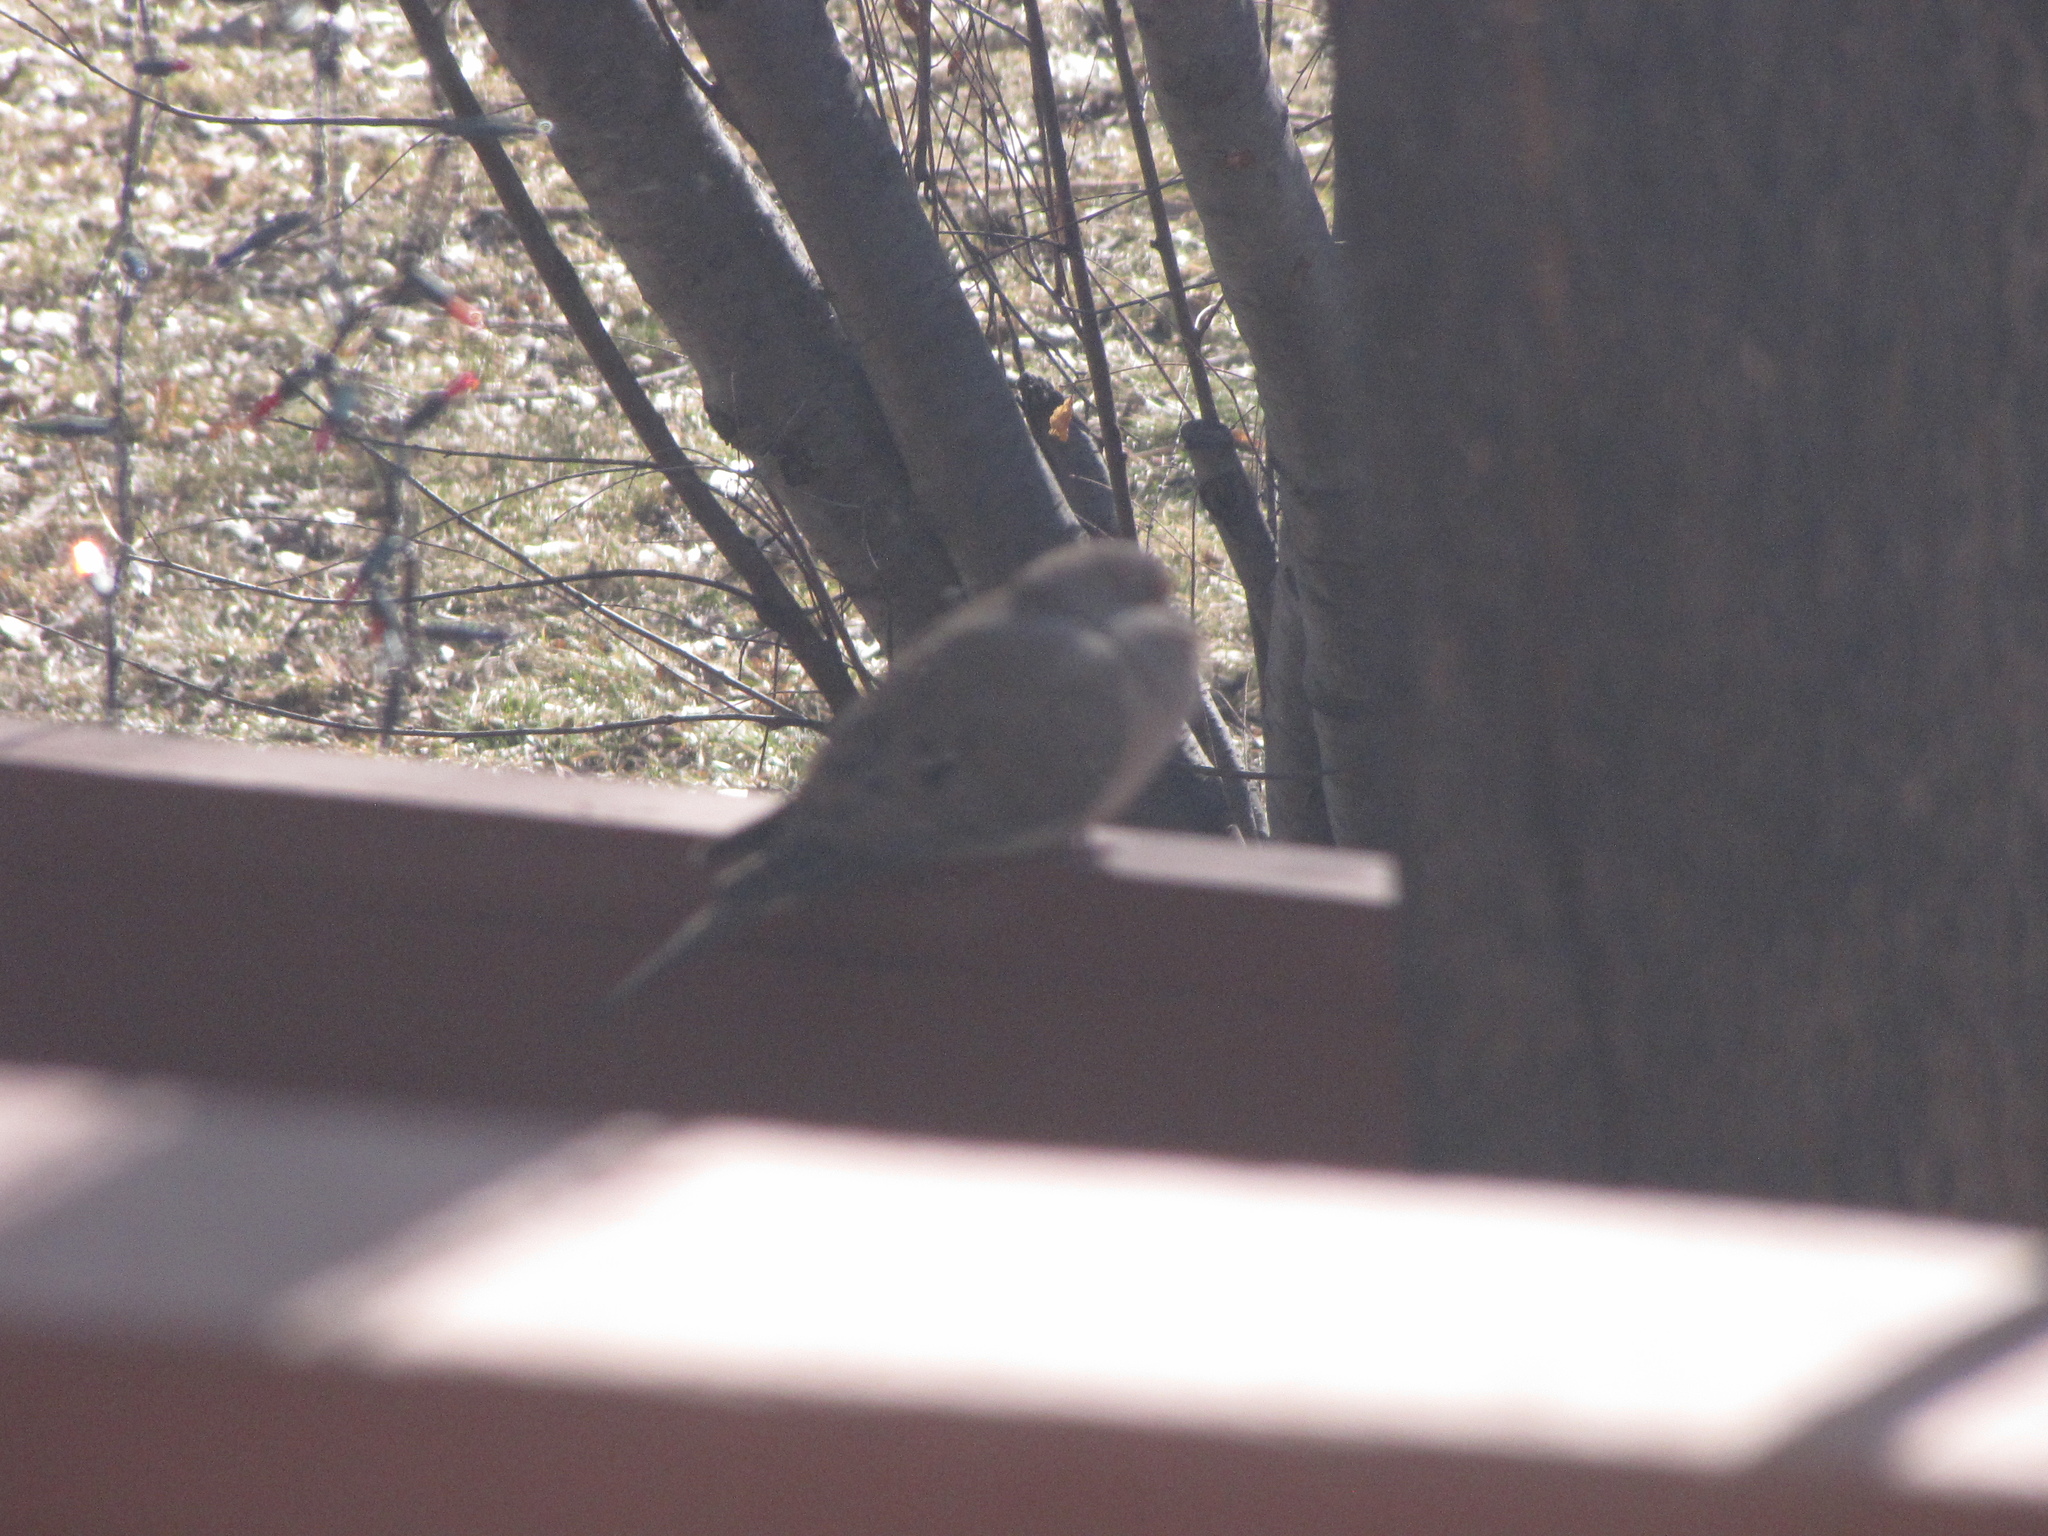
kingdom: Animalia
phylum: Chordata
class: Aves
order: Columbiformes
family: Columbidae
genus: Zenaida
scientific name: Zenaida macroura
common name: Mourning dove
